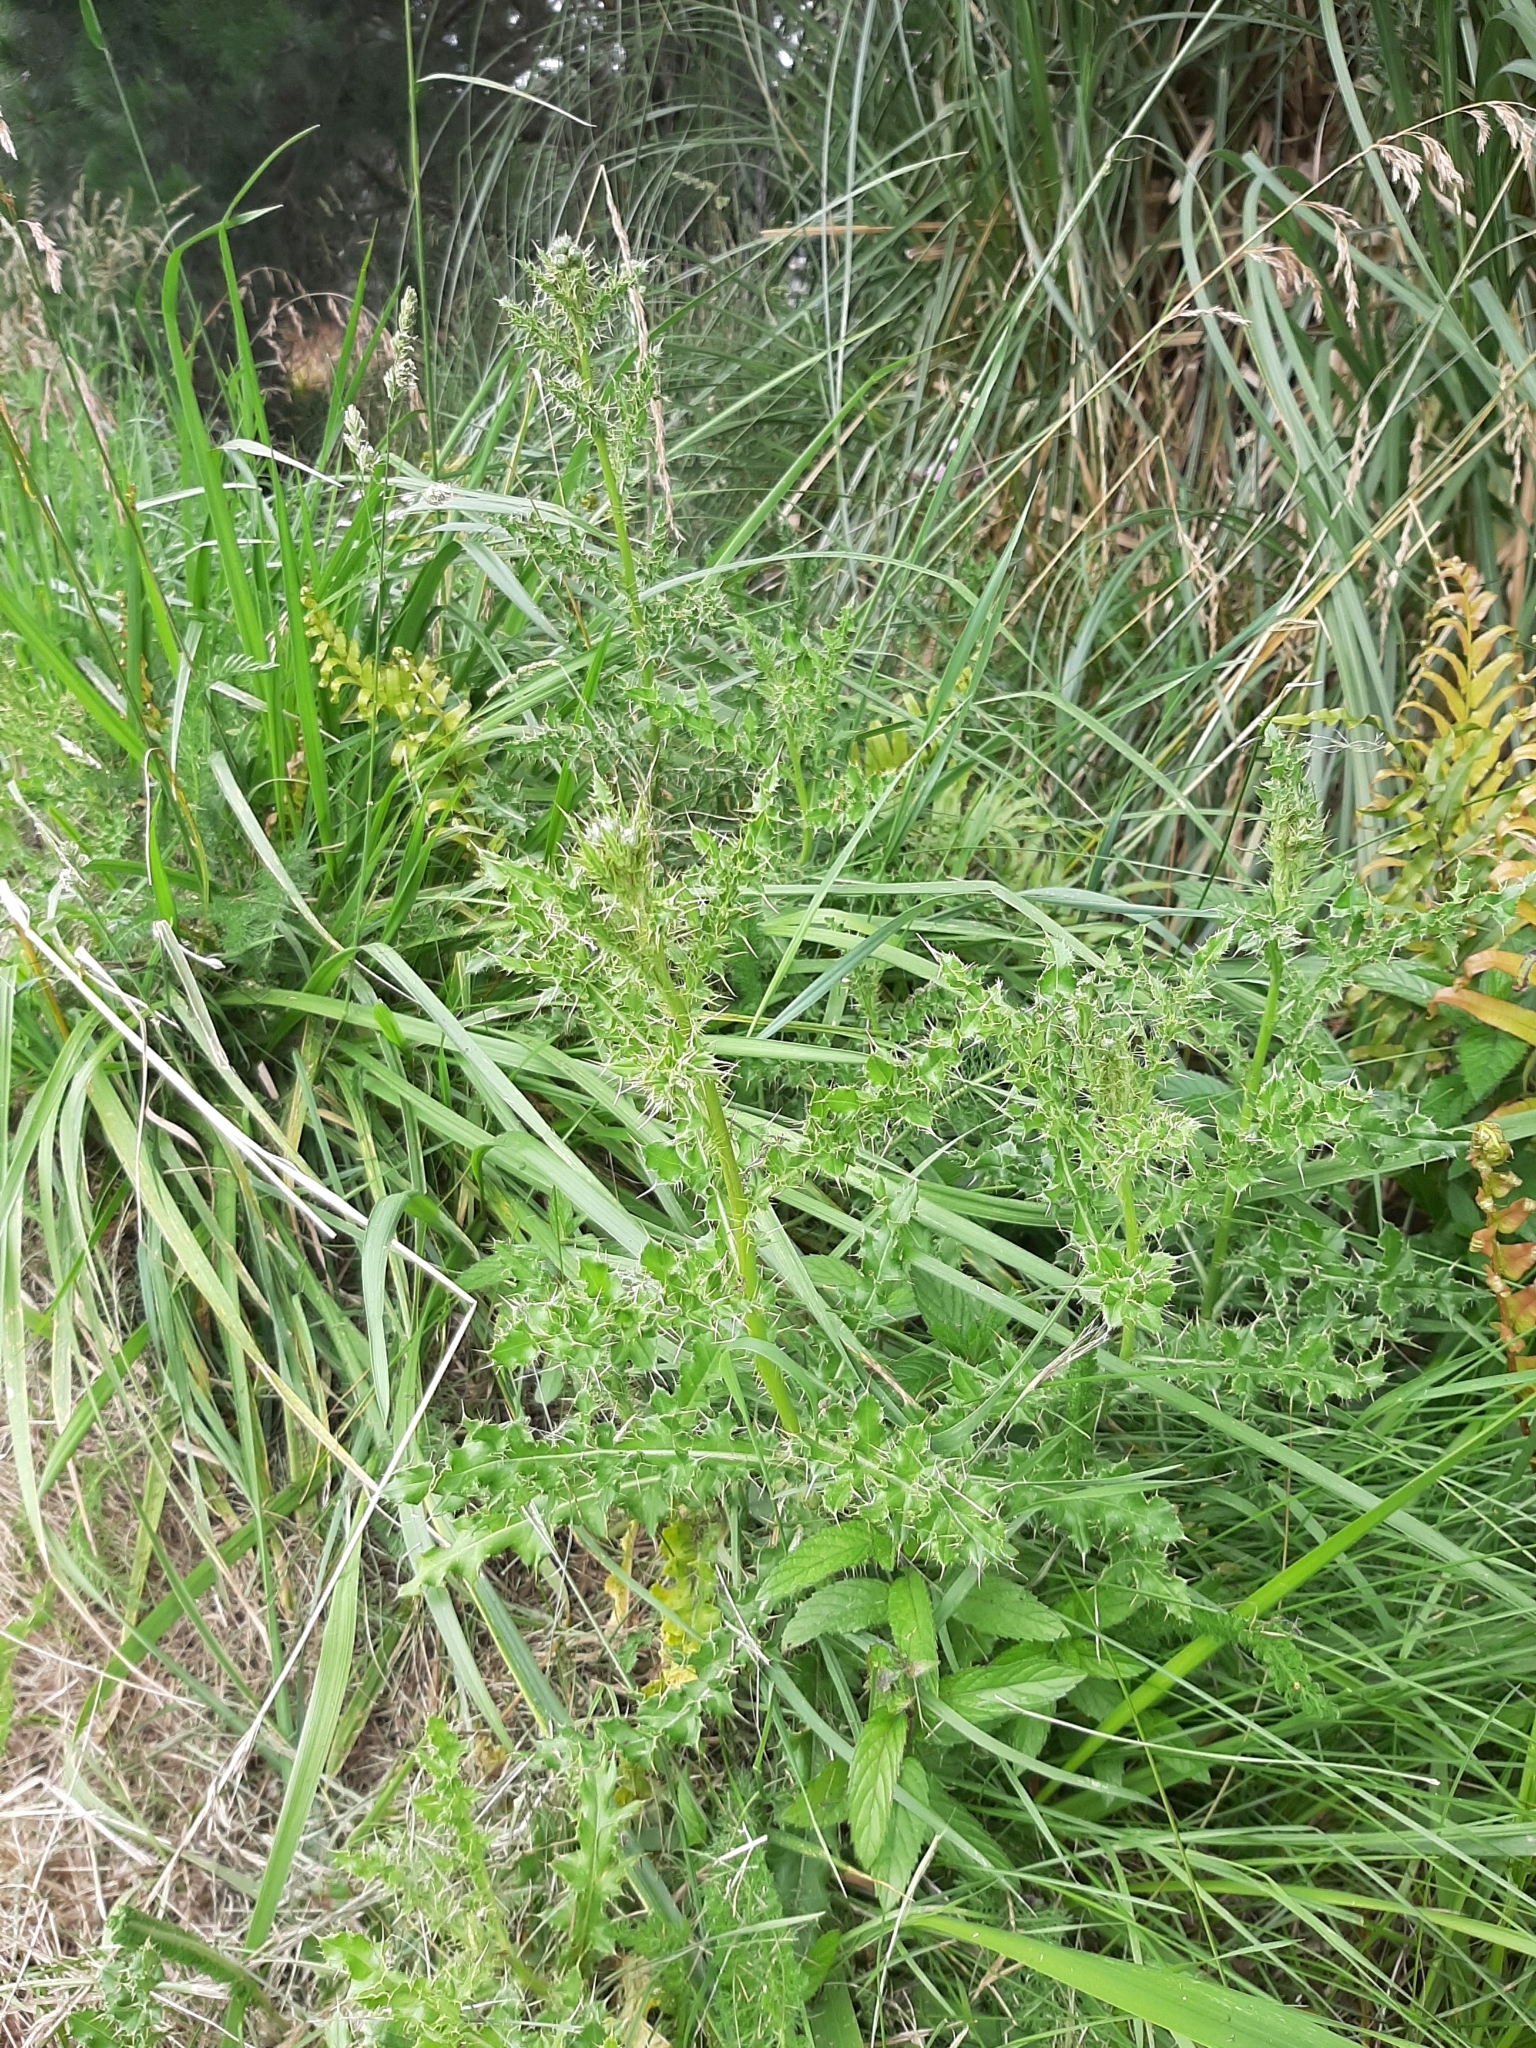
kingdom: Plantae
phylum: Tracheophyta
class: Magnoliopsida
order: Asterales
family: Asteraceae
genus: Cirsium
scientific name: Cirsium arvense
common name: Creeping thistle
